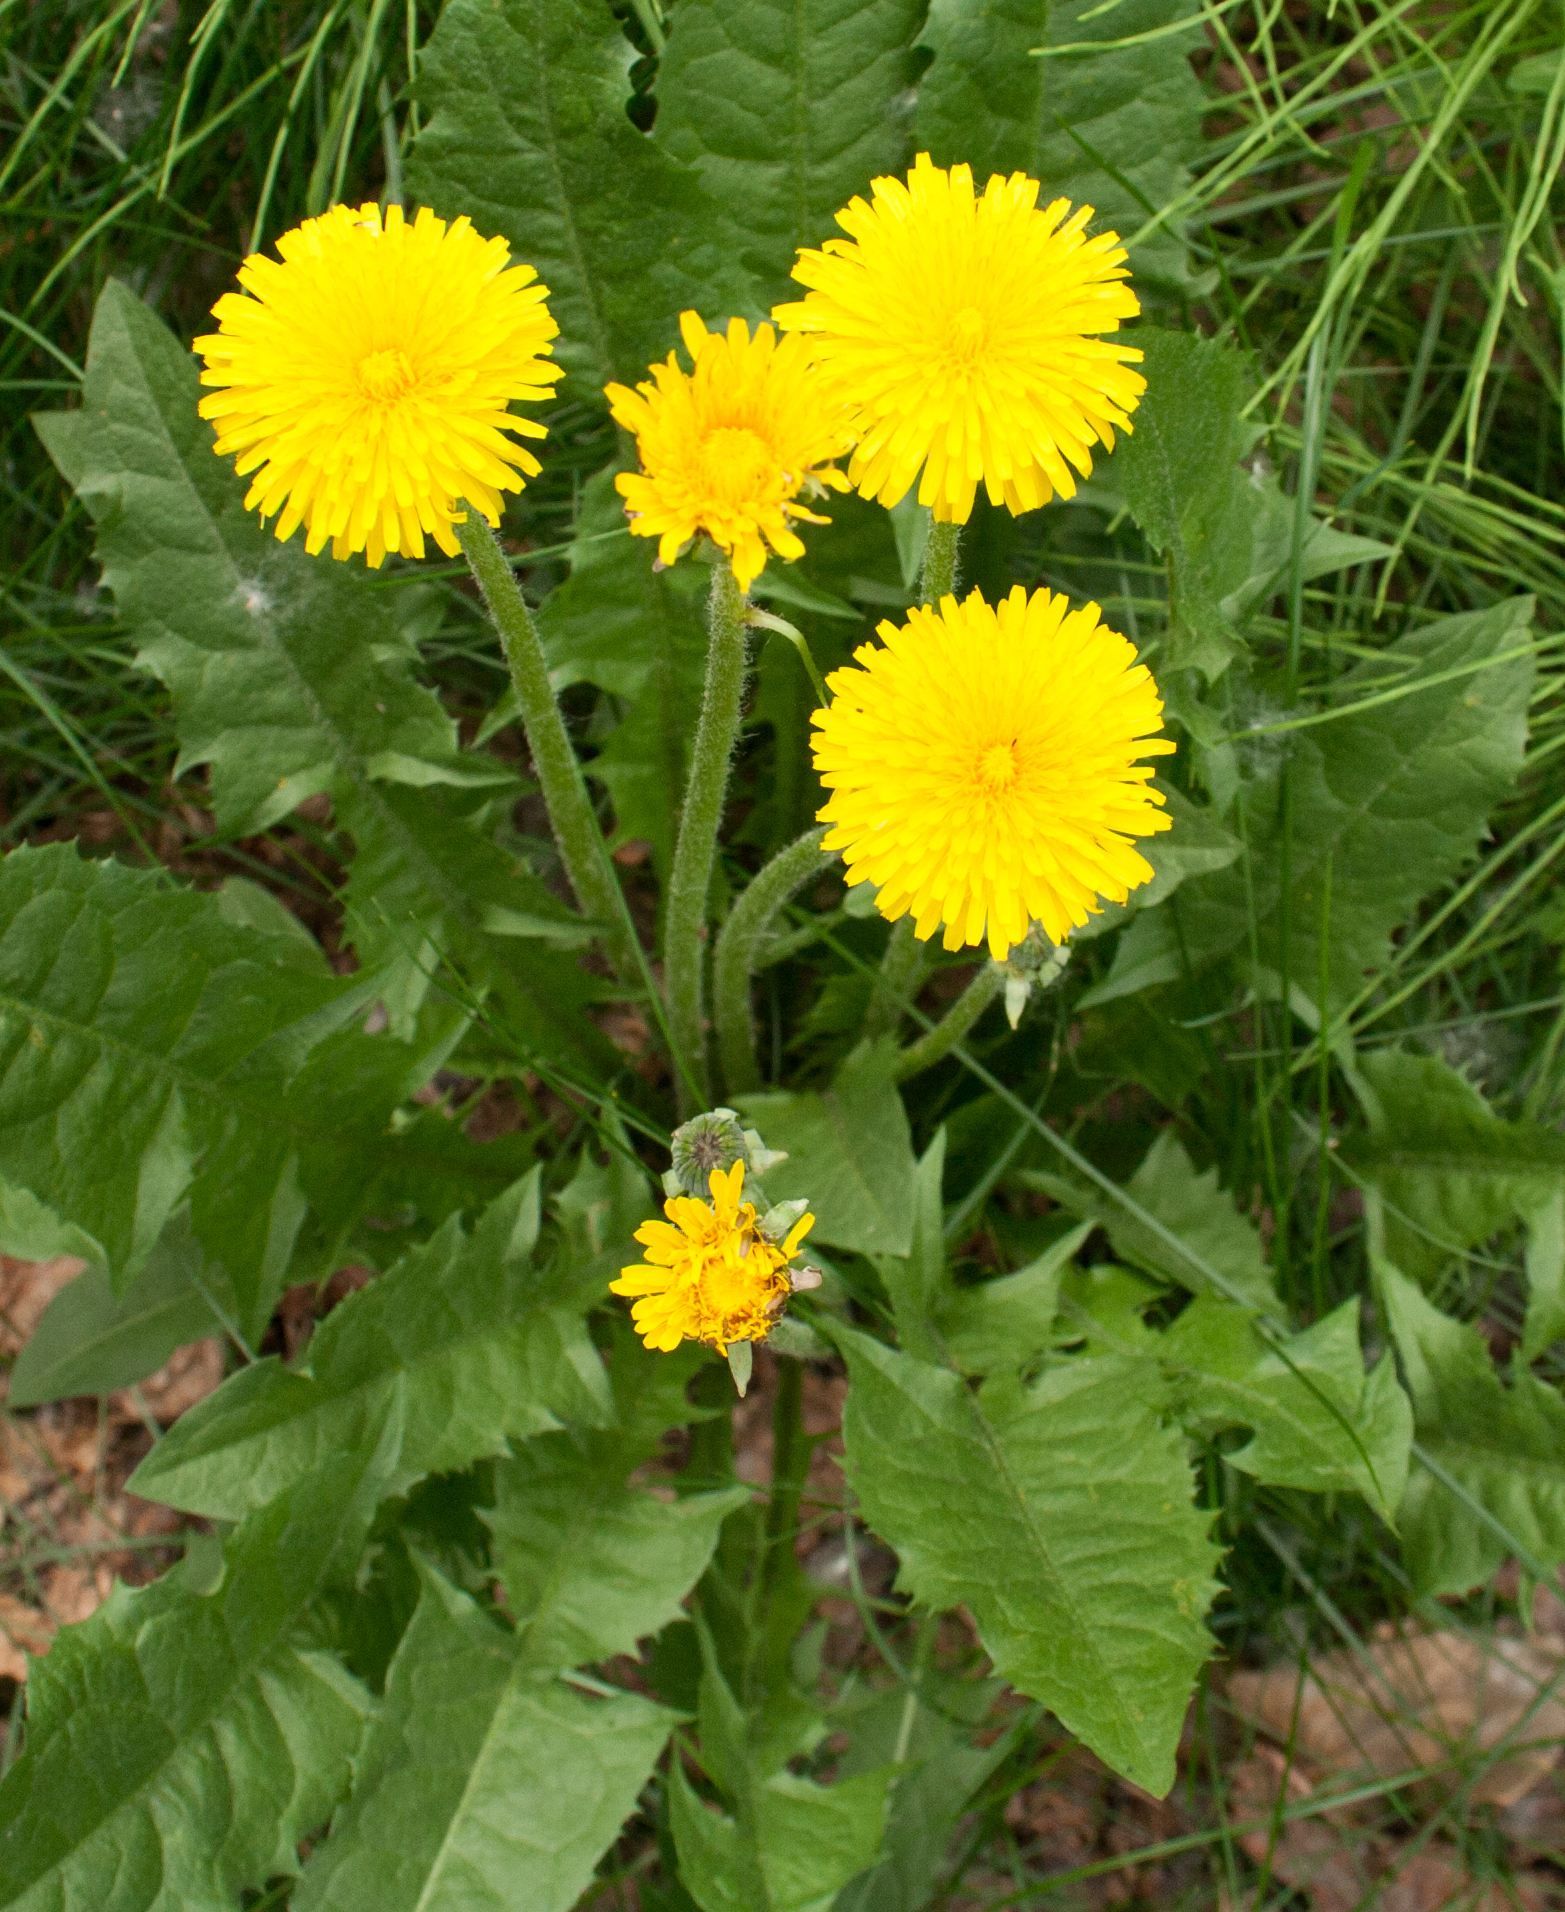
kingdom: Plantae
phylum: Tracheophyta
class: Magnoliopsida
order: Asterales
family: Asteraceae
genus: Taraxacum
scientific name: Taraxacum officinale
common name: Common dandelion
